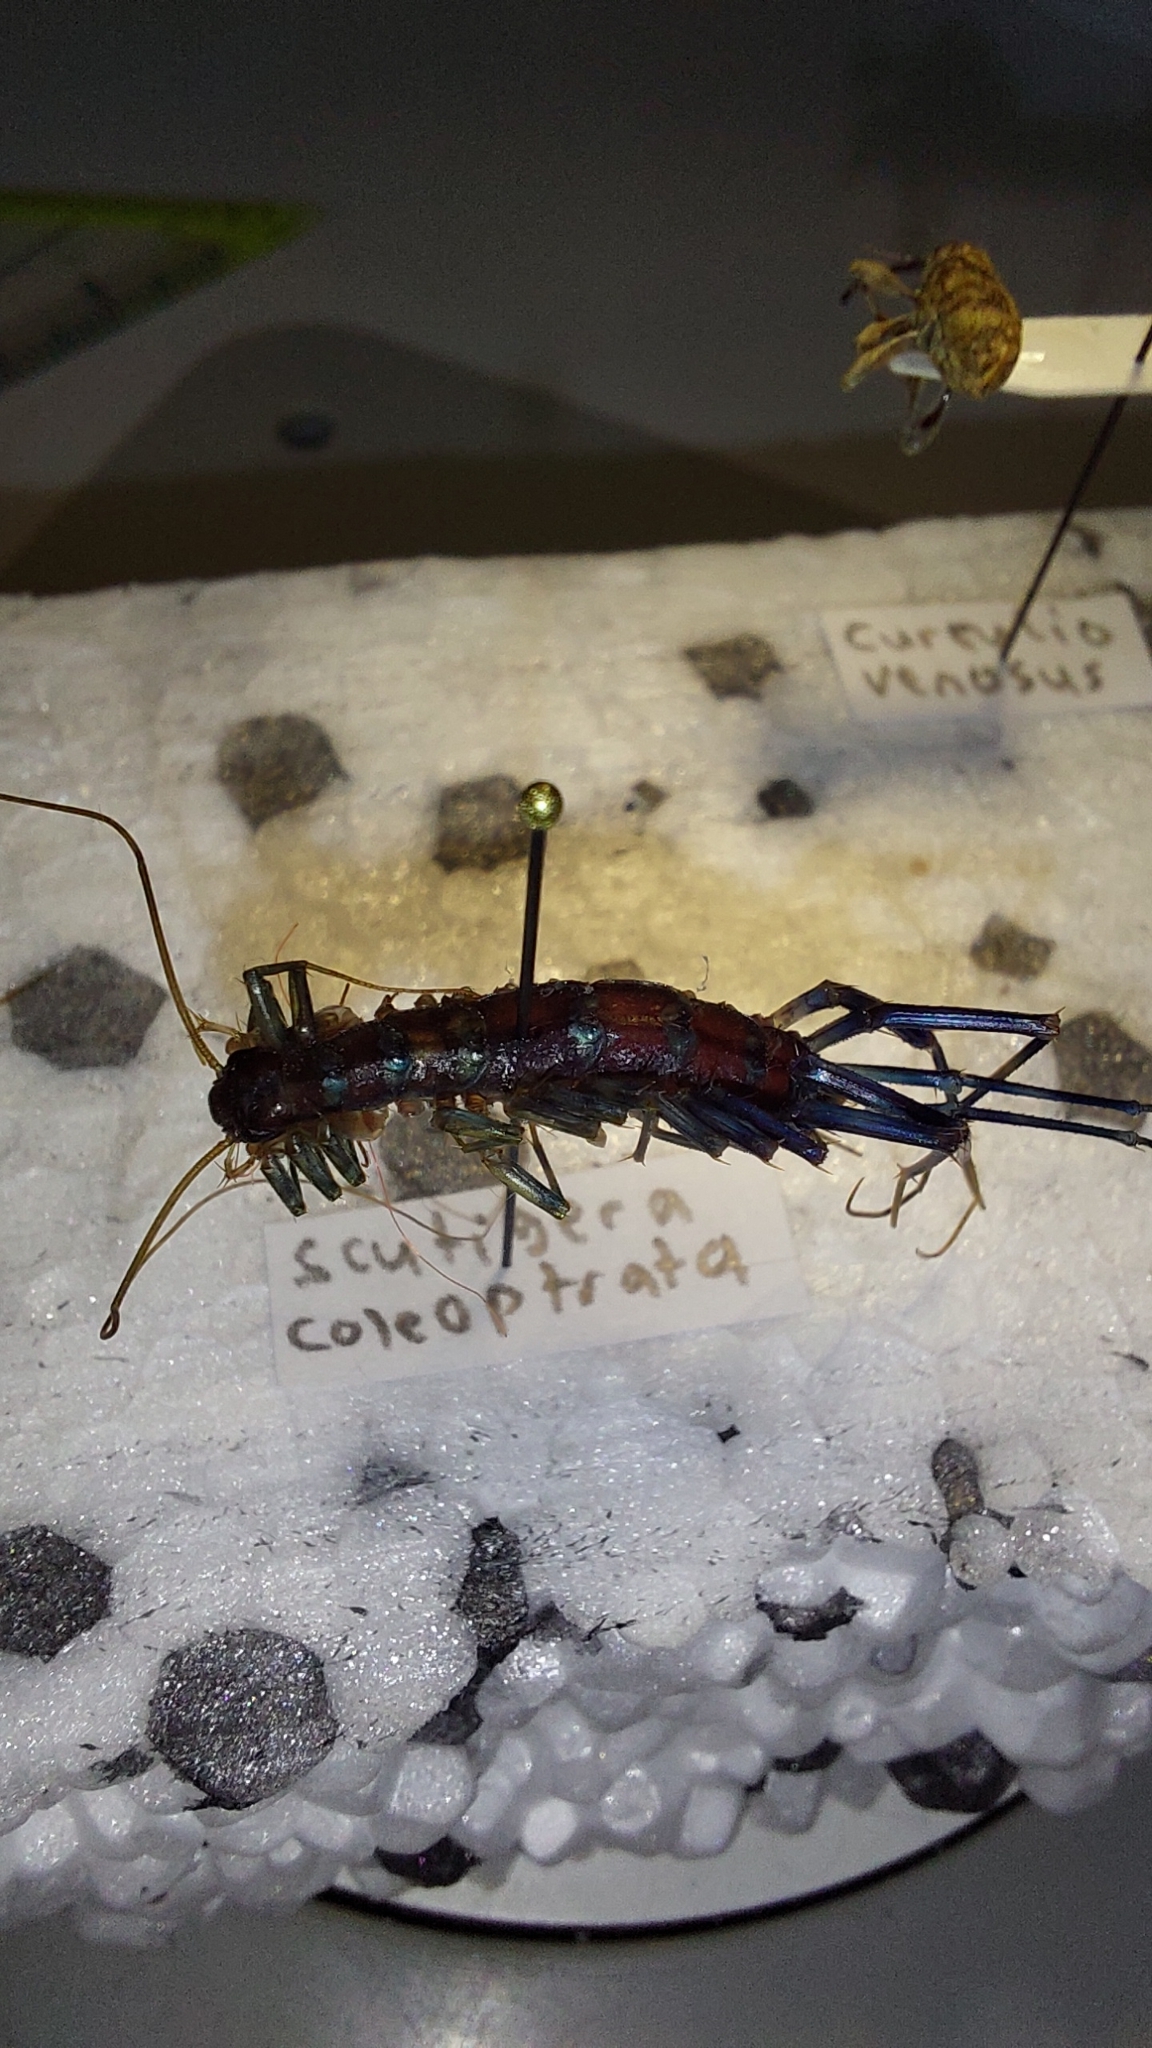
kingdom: Animalia
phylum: Arthropoda
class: Chilopoda
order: Scutigeromorpha
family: Scutigeridae
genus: Scutigera
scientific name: Scutigera coleoptrata
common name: House centipede
